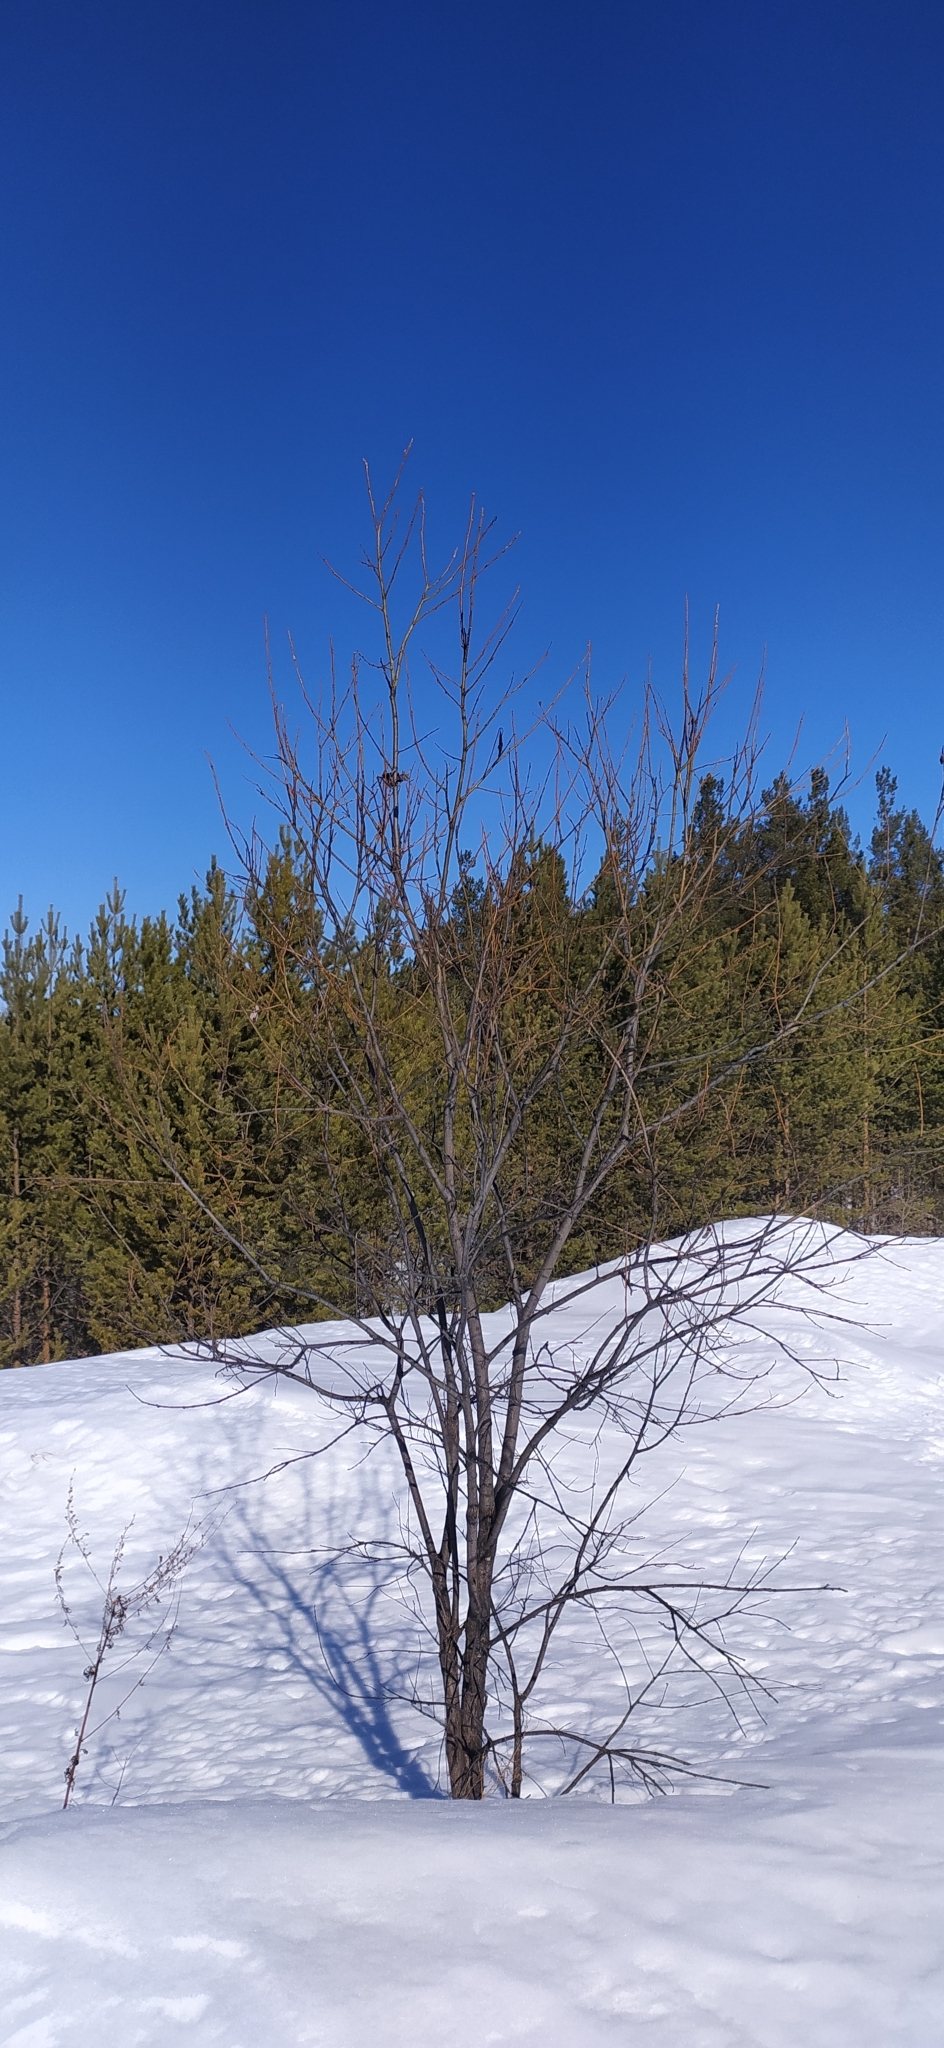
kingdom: Plantae
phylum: Tracheophyta
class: Magnoliopsida
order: Malpighiales
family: Salicaceae
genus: Salix
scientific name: Salix
